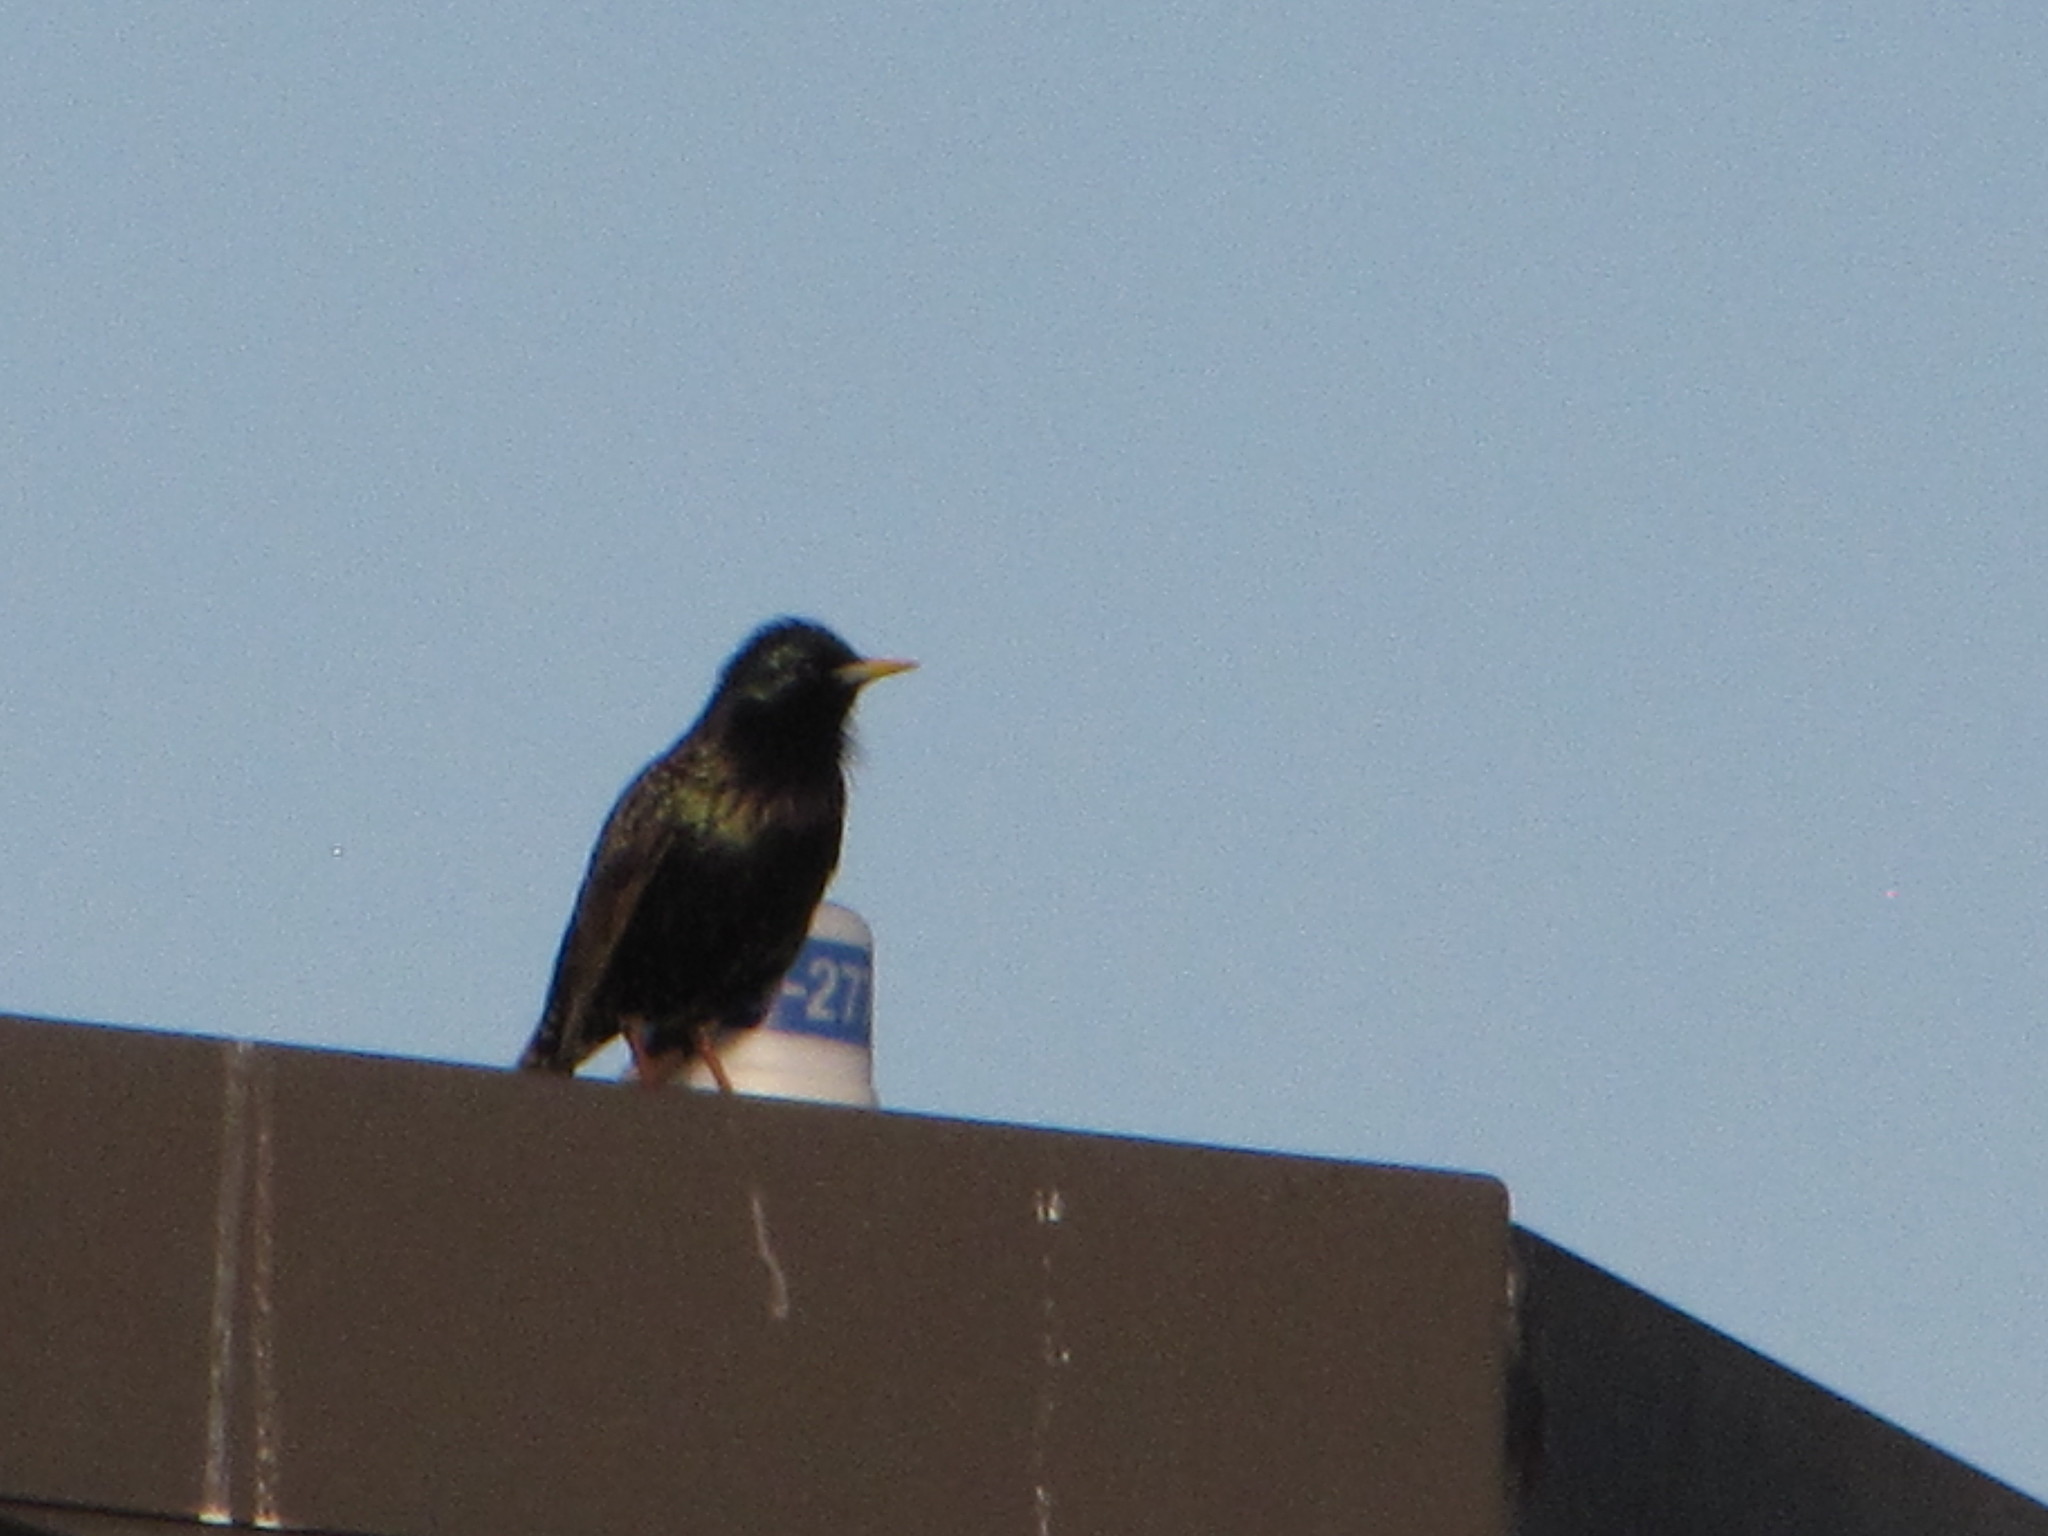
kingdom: Animalia
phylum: Chordata
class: Aves
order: Passeriformes
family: Sturnidae
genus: Sturnus
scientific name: Sturnus vulgaris
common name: Common starling
